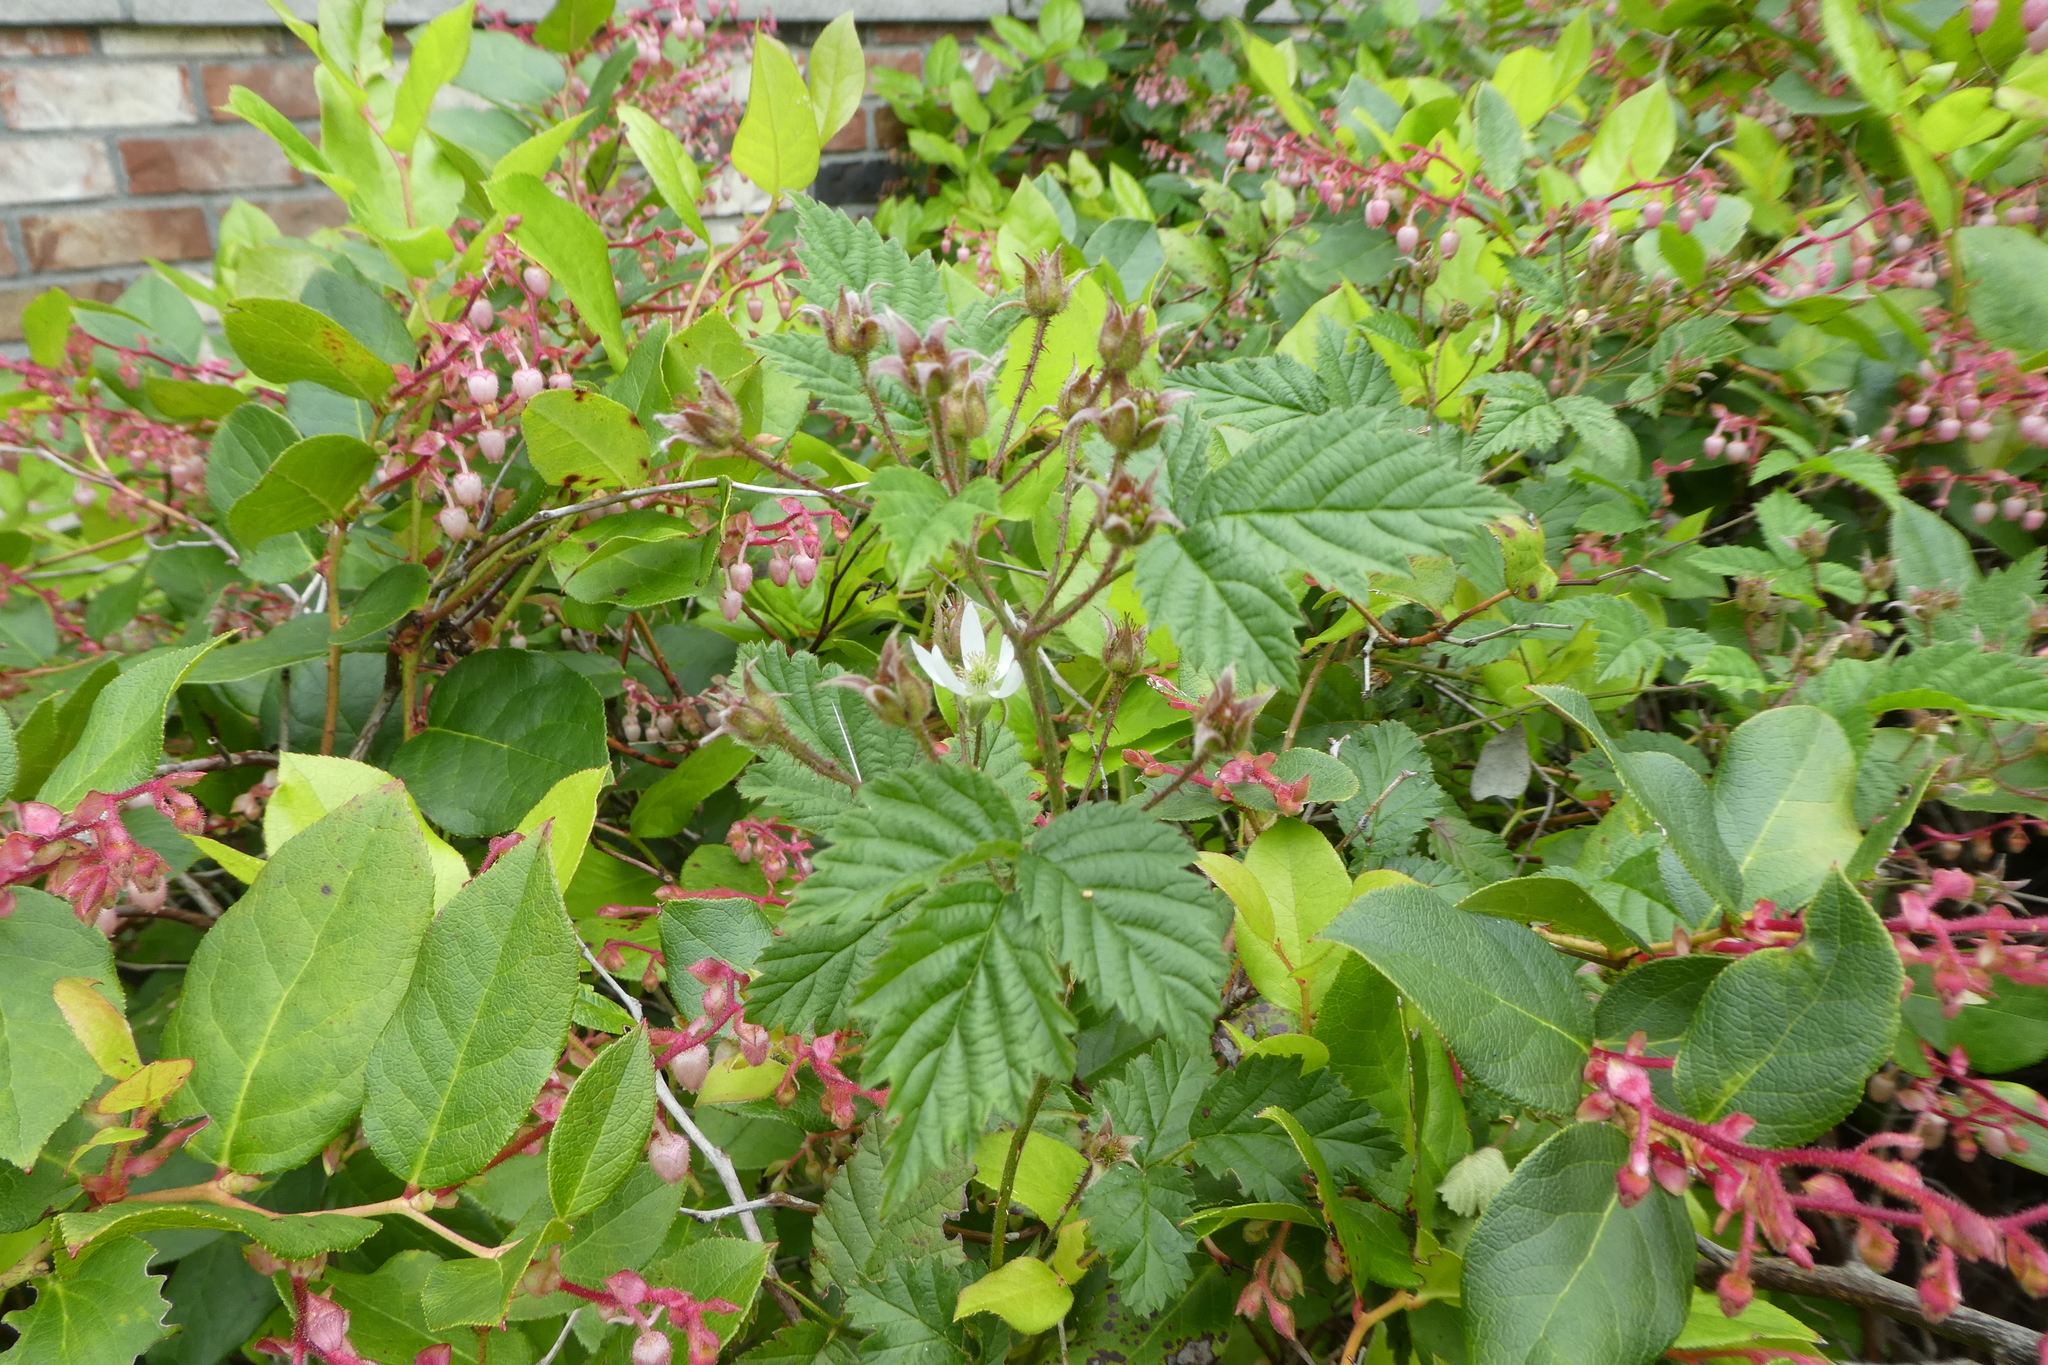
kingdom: Plantae
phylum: Tracheophyta
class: Magnoliopsida
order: Rosales
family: Rosaceae
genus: Rubus
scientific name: Rubus ursinus
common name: Pacific blackberry
